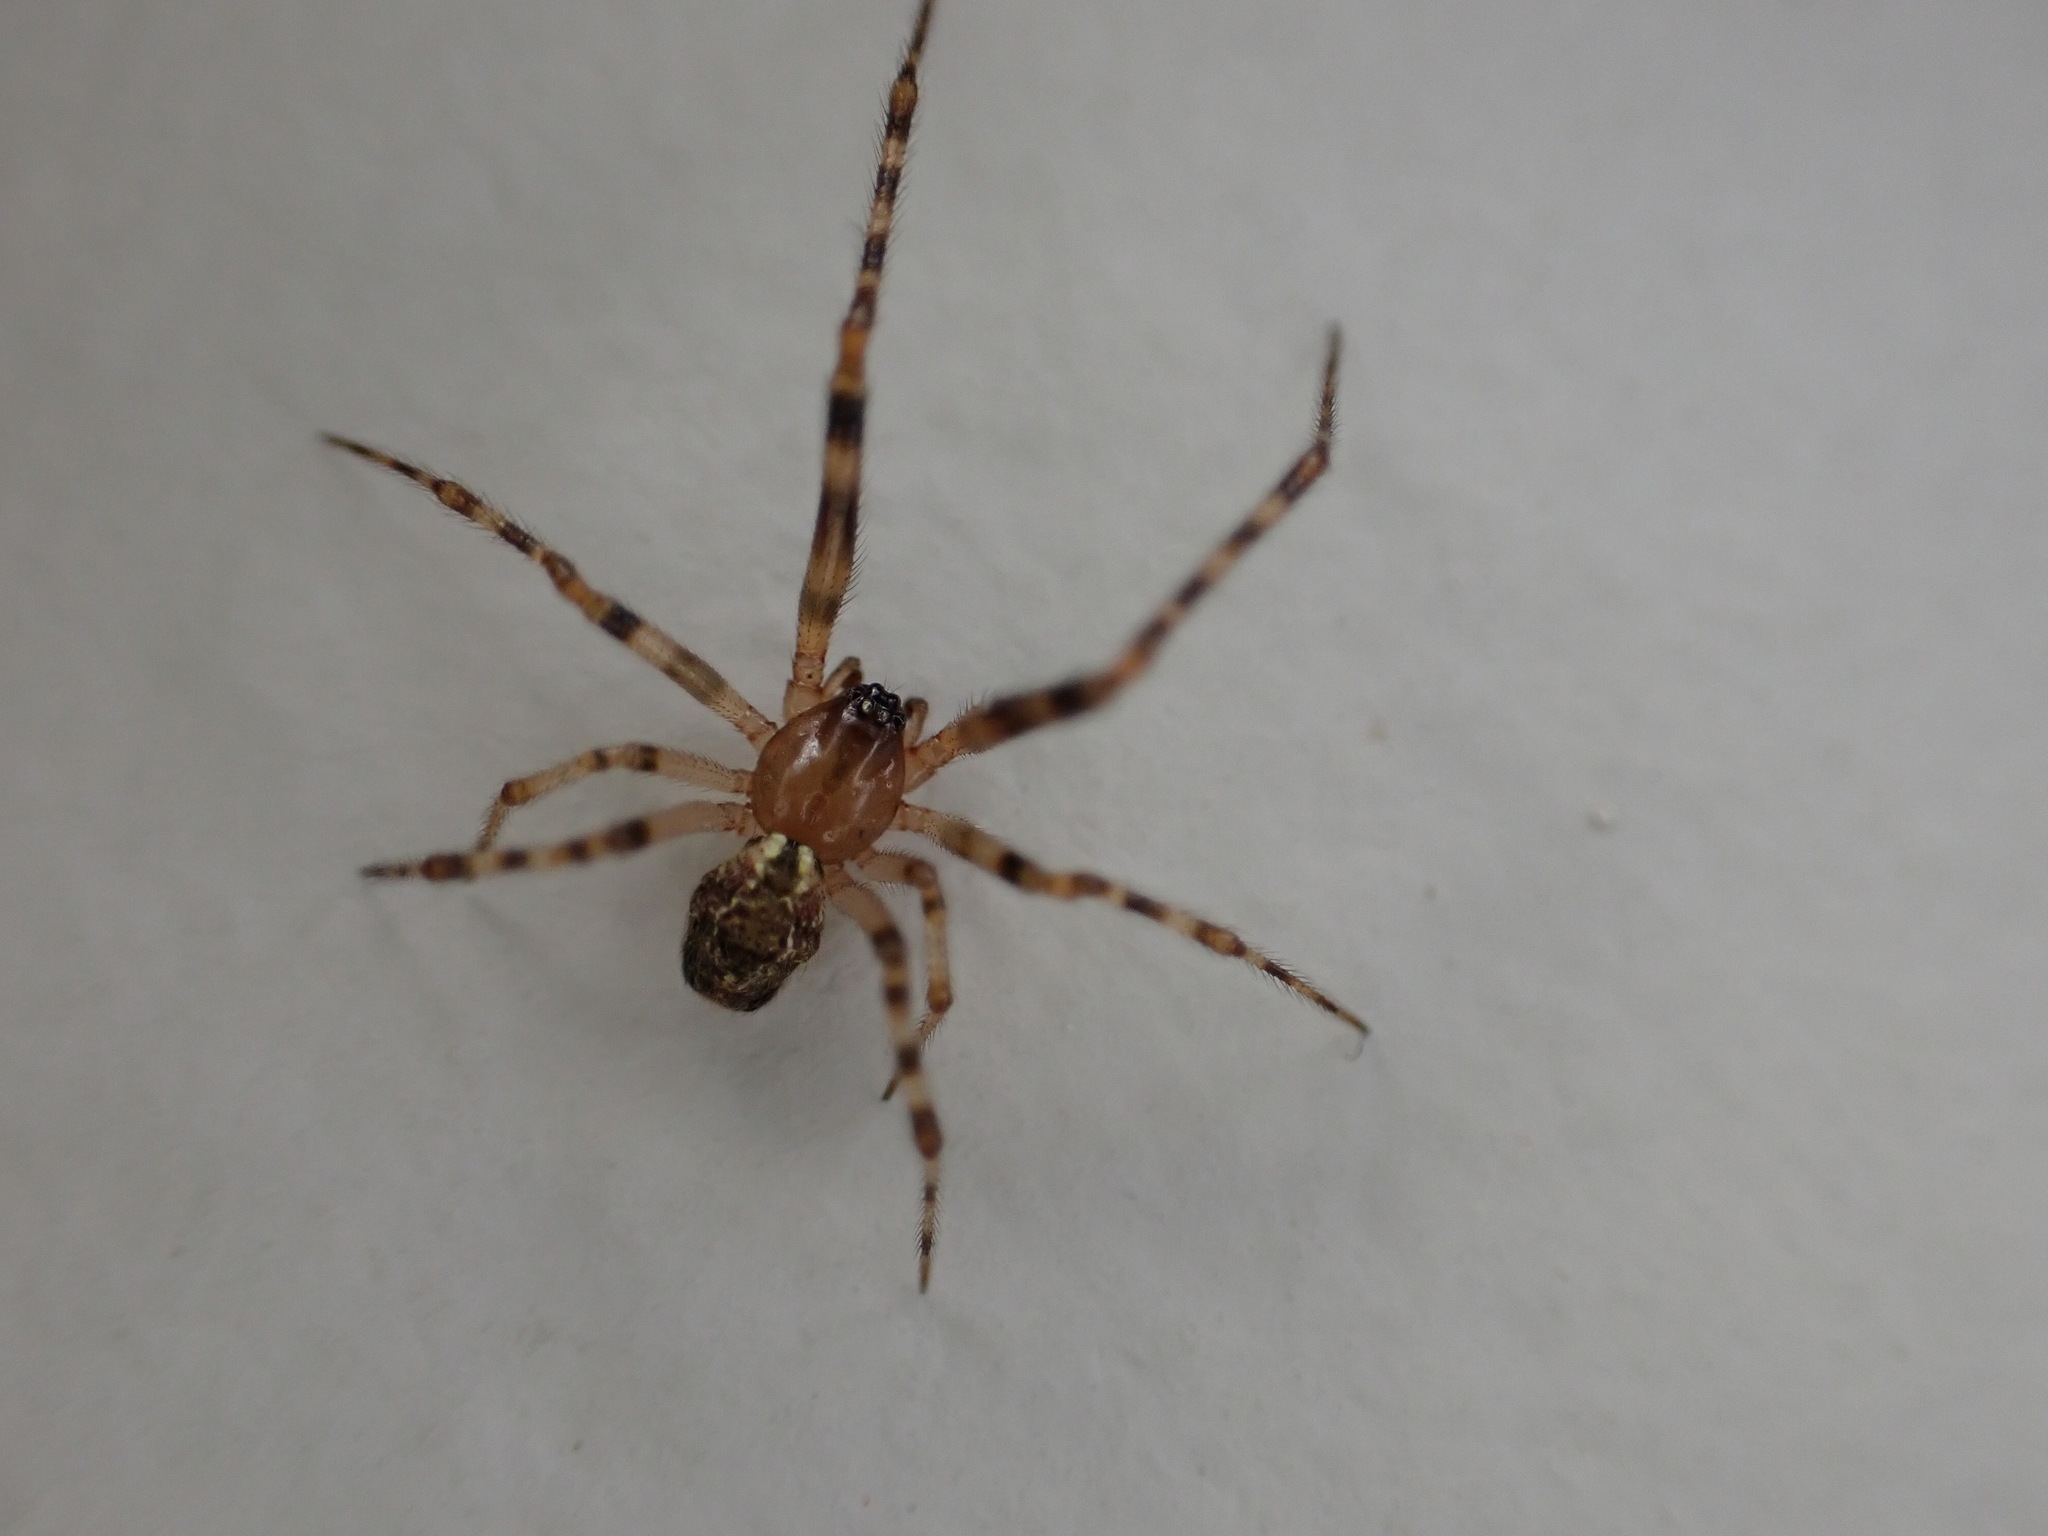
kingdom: Animalia
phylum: Arthropoda
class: Arachnida
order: Araneae
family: Theridiidae
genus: Cryptachaea
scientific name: Cryptachaea veruculata
